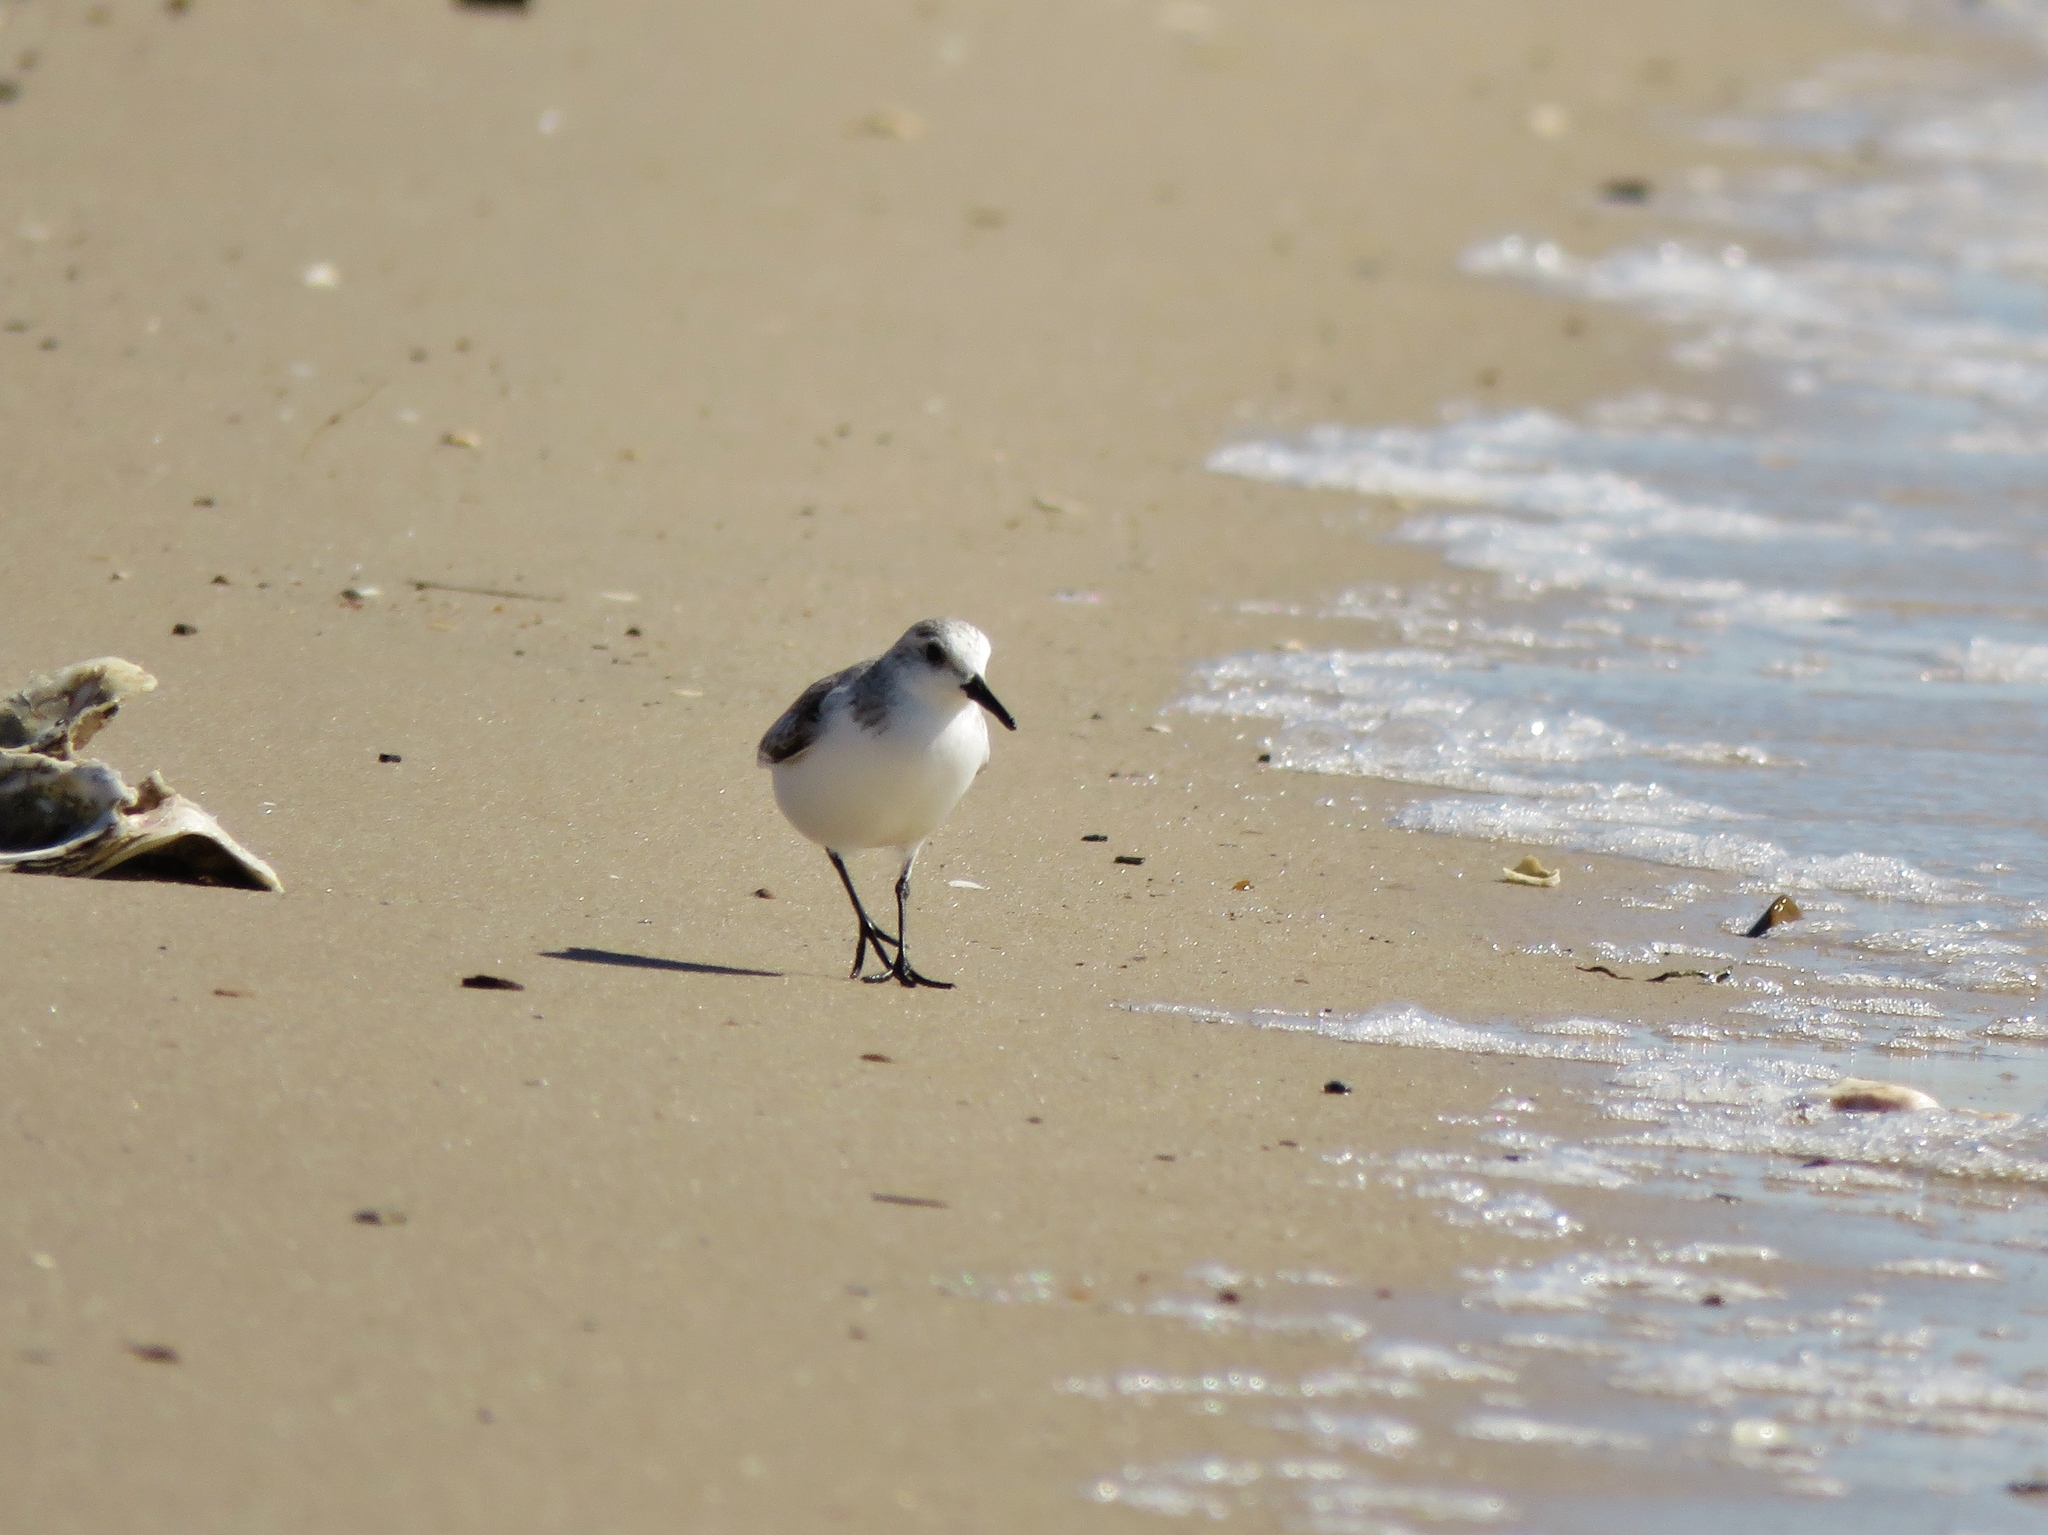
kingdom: Animalia
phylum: Chordata
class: Aves
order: Charadriiformes
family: Scolopacidae
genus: Calidris
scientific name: Calidris alba
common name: Sanderling
